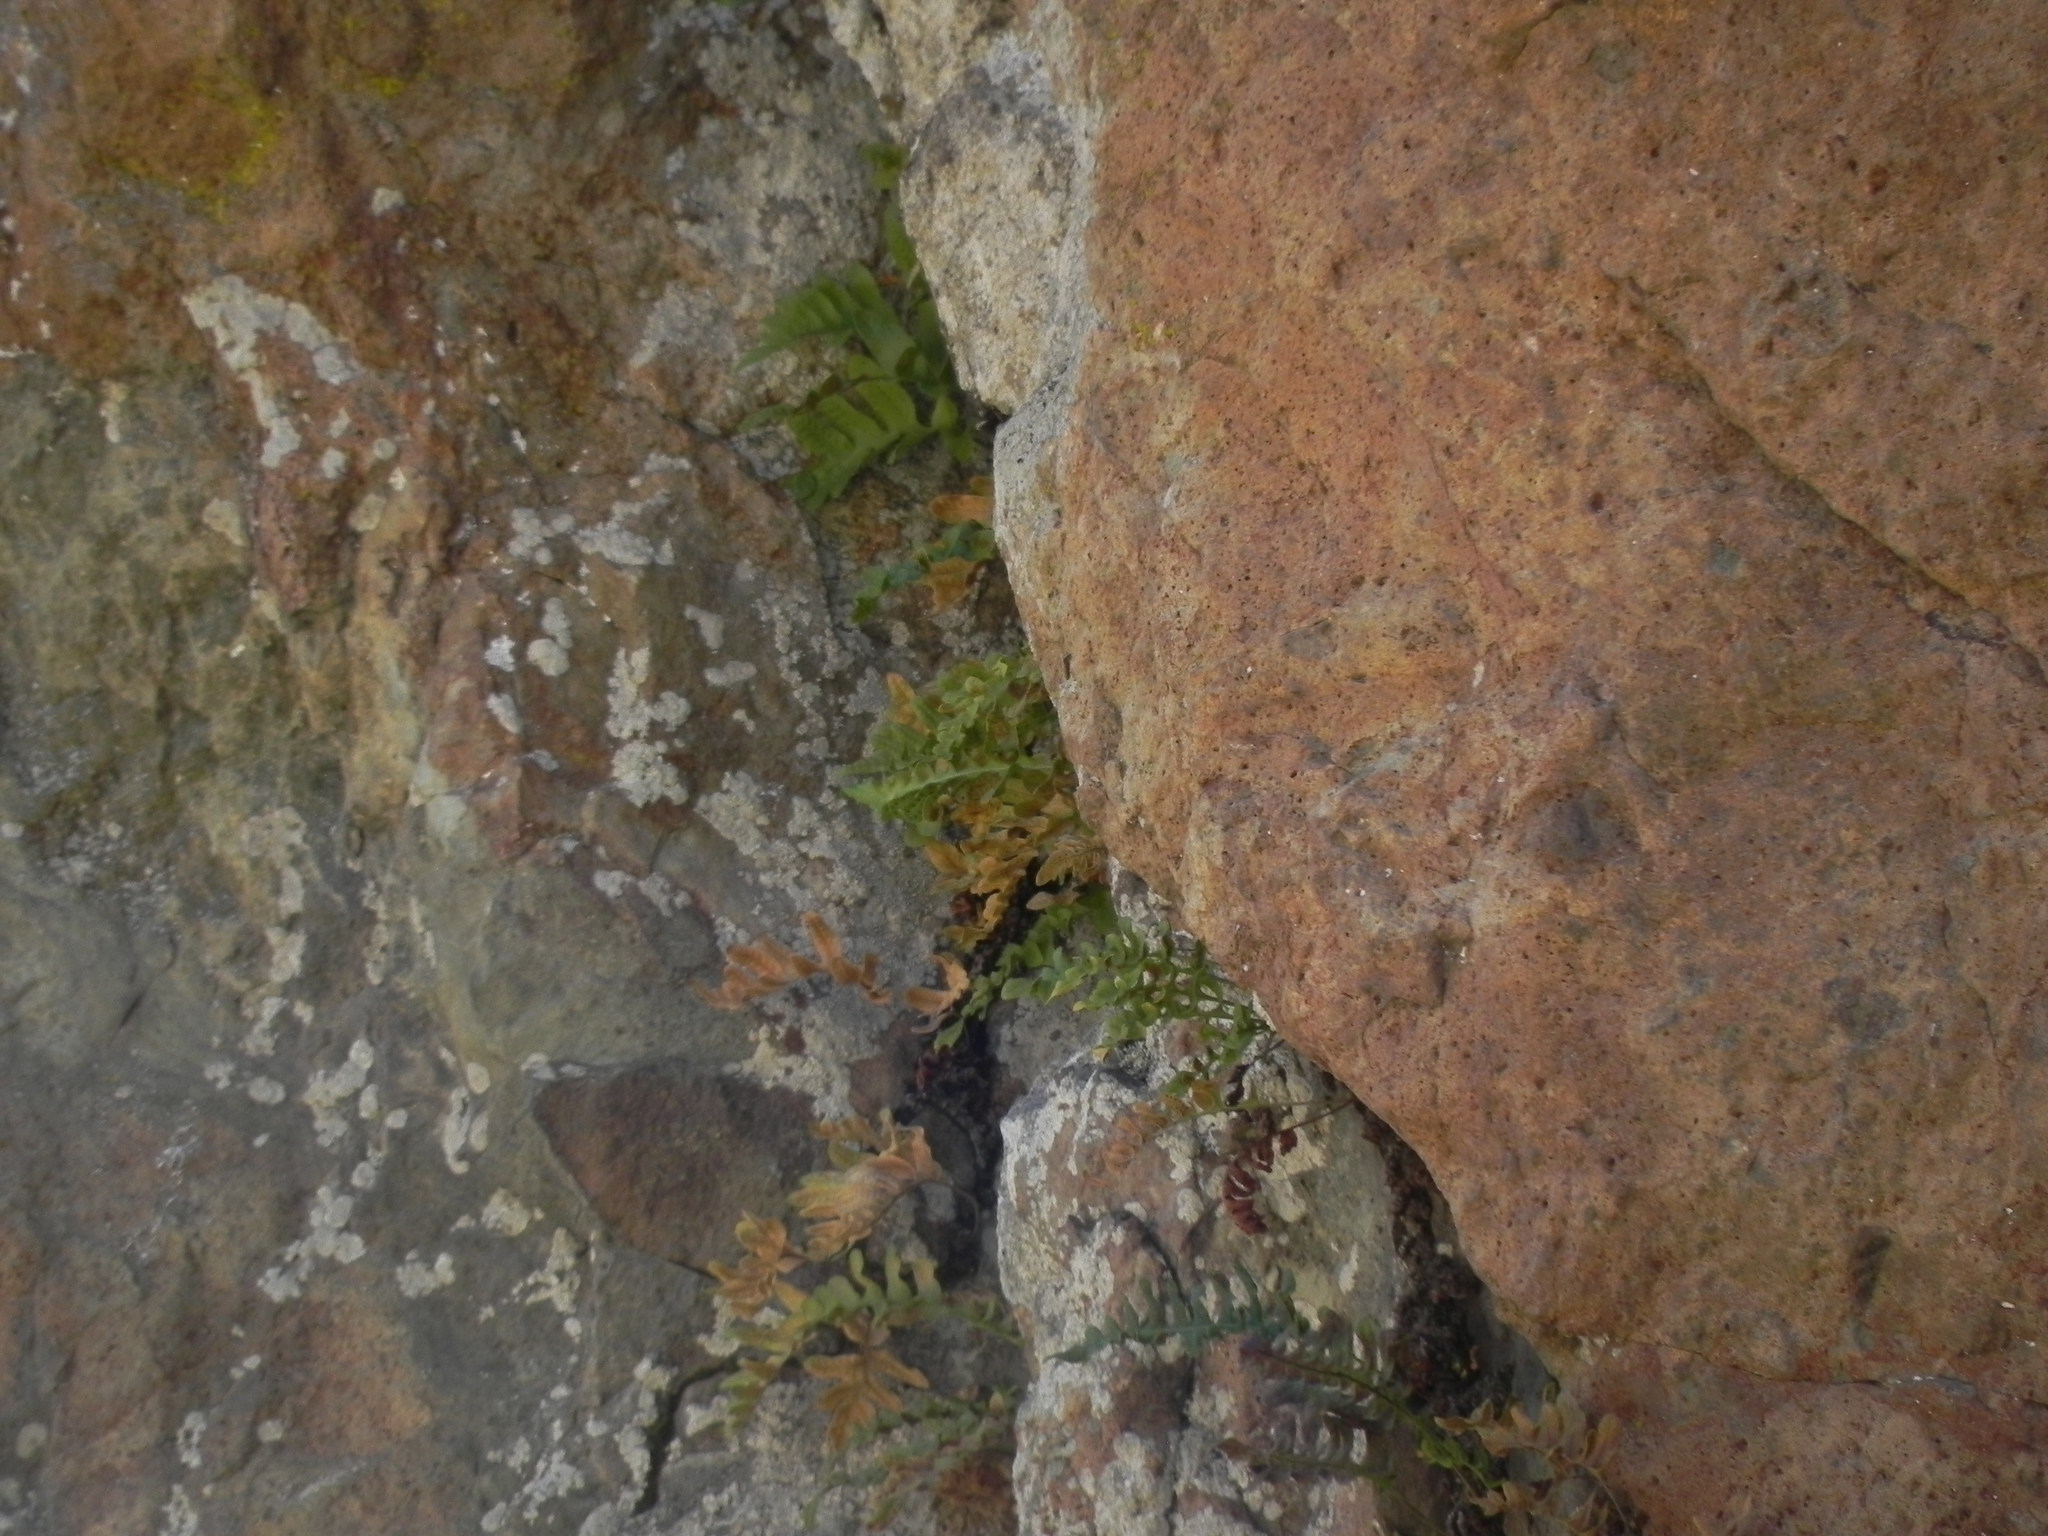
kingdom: Plantae
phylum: Tracheophyta
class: Polypodiopsida
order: Polypodiales
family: Polypodiaceae
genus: Polypodium
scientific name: Polypodium californicum
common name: California polypody
